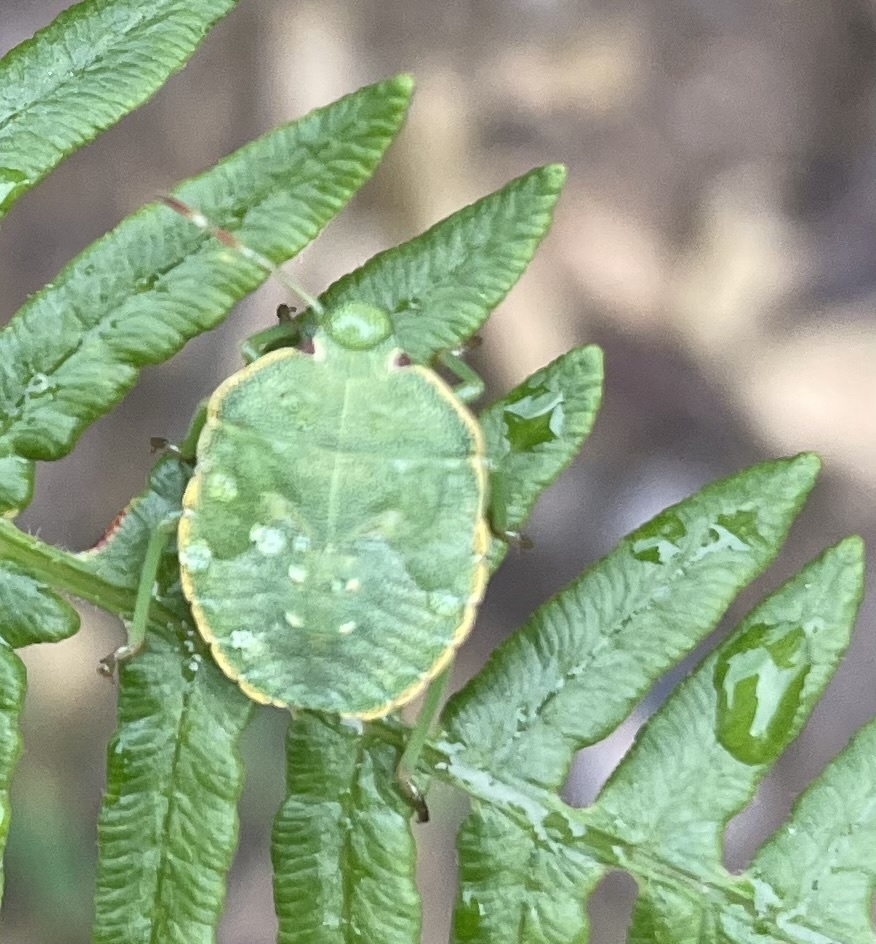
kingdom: Animalia
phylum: Arthropoda
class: Insecta
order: Hemiptera
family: Pentatomidae
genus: Palomena
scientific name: Palomena prasina
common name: Green shieldbug
